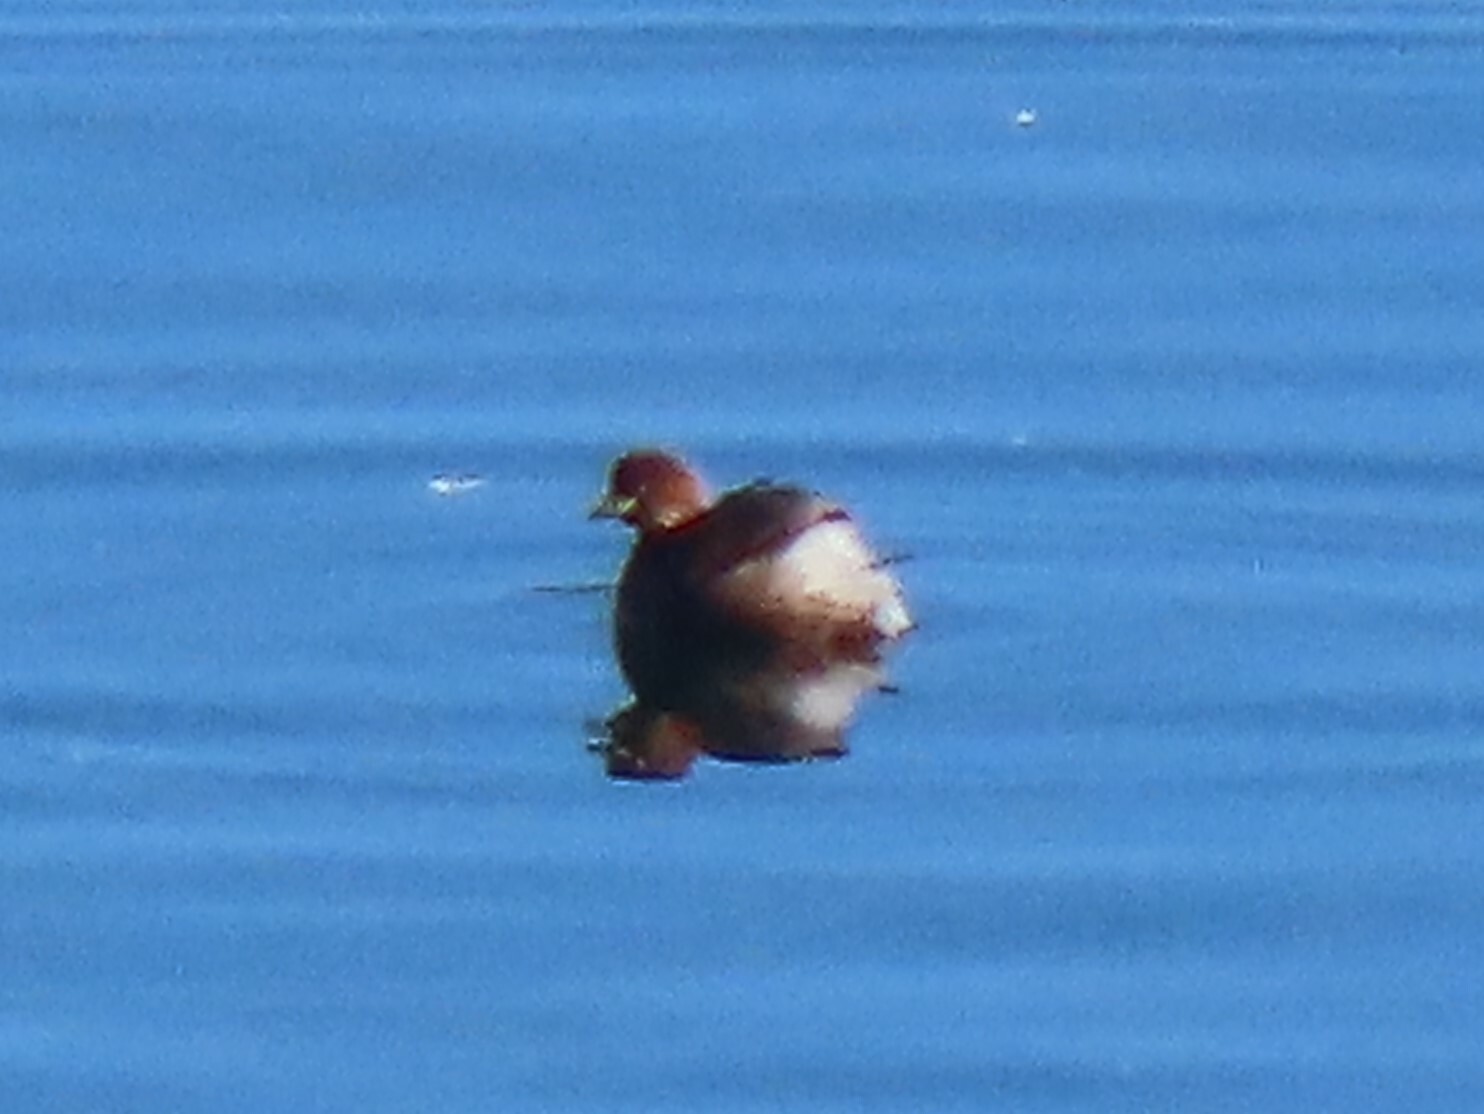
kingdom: Animalia
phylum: Chordata
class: Aves
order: Podicipediformes
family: Podicipedidae
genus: Tachybaptus
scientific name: Tachybaptus ruficollis
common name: Little grebe
